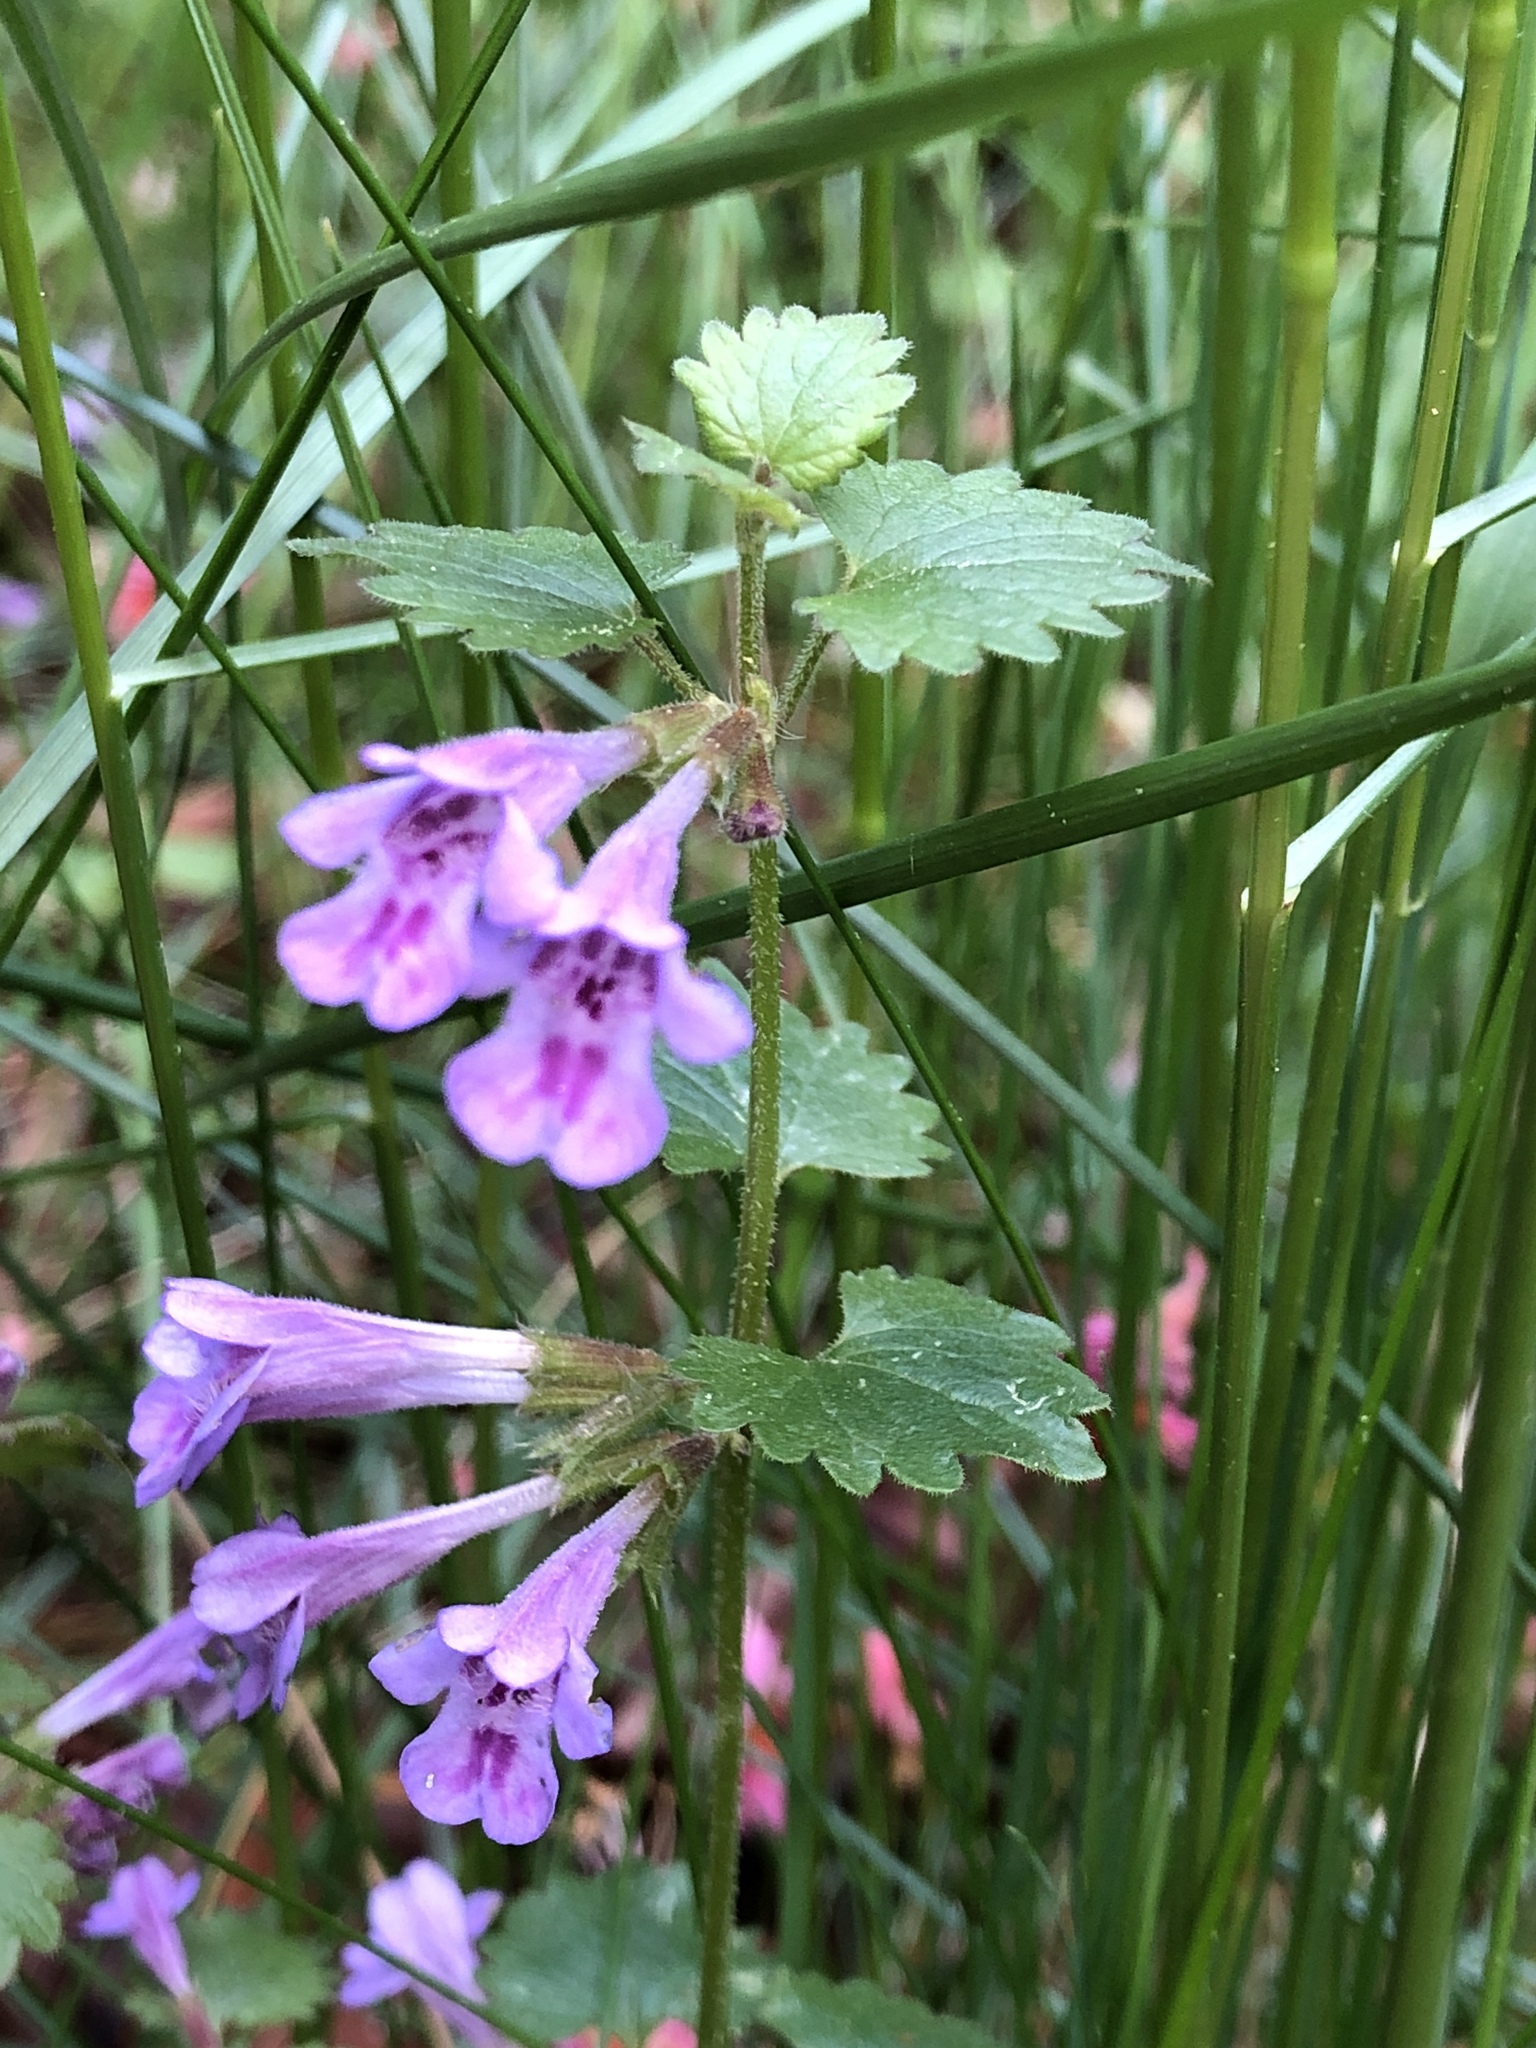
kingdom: Plantae
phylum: Tracheophyta
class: Magnoliopsida
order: Lamiales
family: Lamiaceae
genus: Glechoma
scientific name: Glechoma hederacea
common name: Ground ivy
